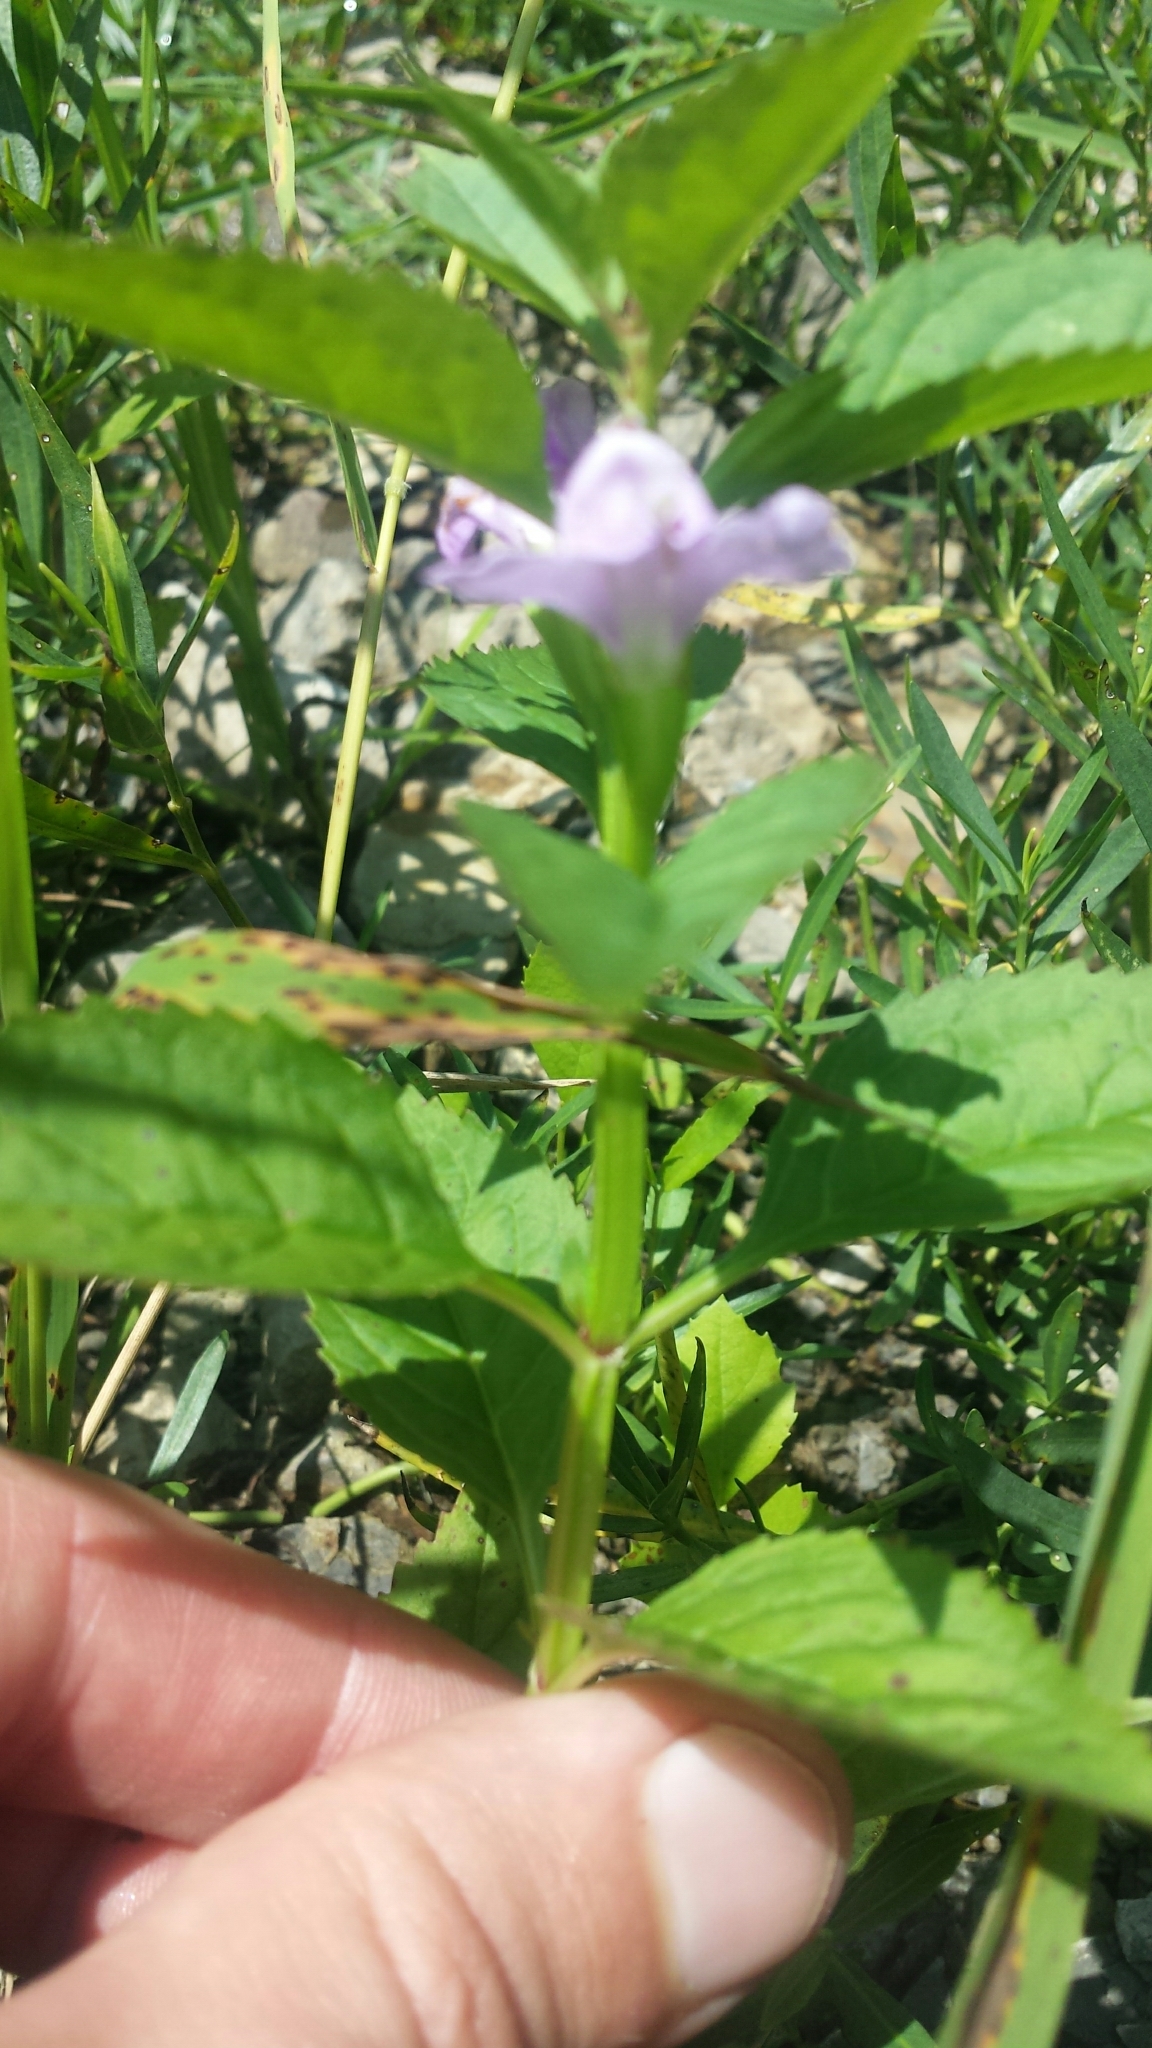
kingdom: Plantae
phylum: Tracheophyta
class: Magnoliopsida
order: Lamiales
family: Phrymaceae
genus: Mimulus
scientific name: Mimulus alatus
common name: Sharp-wing monkey-flower
